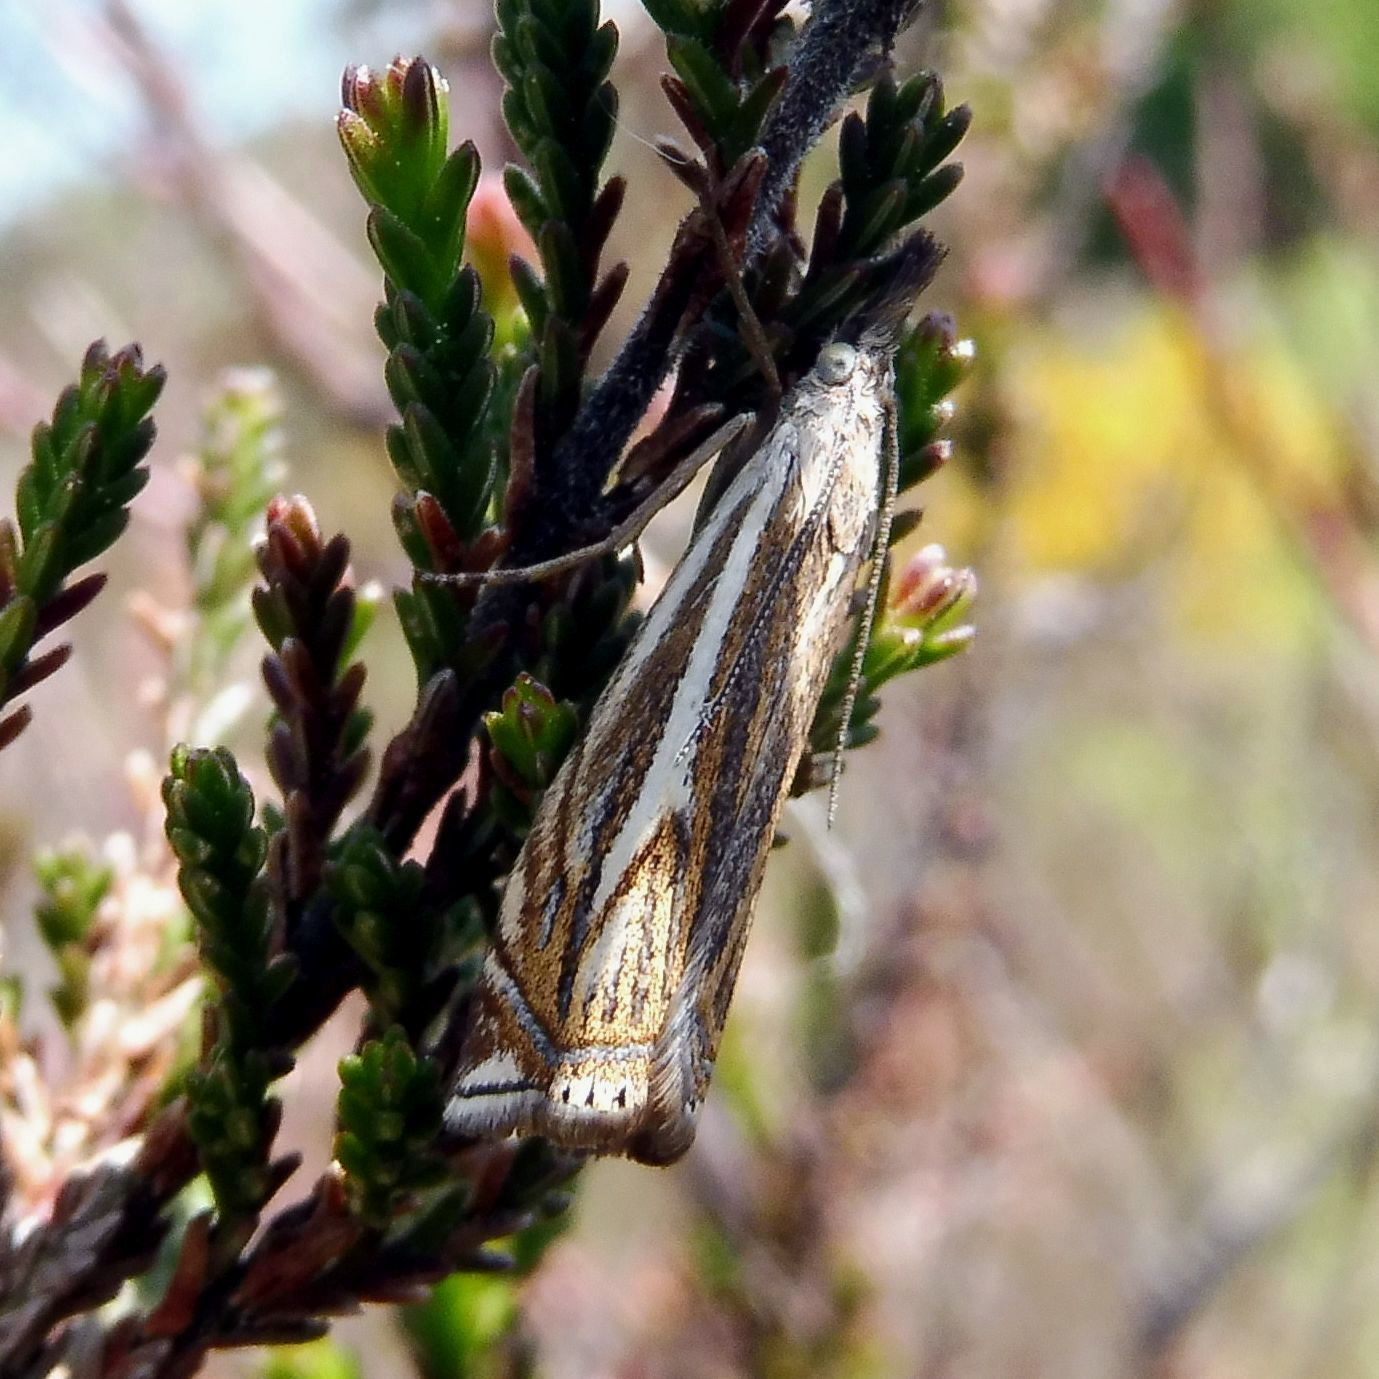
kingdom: Animalia
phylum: Arthropoda
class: Insecta
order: Lepidoptera
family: Crambidae
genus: Crambus
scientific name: Crambus nemorella
